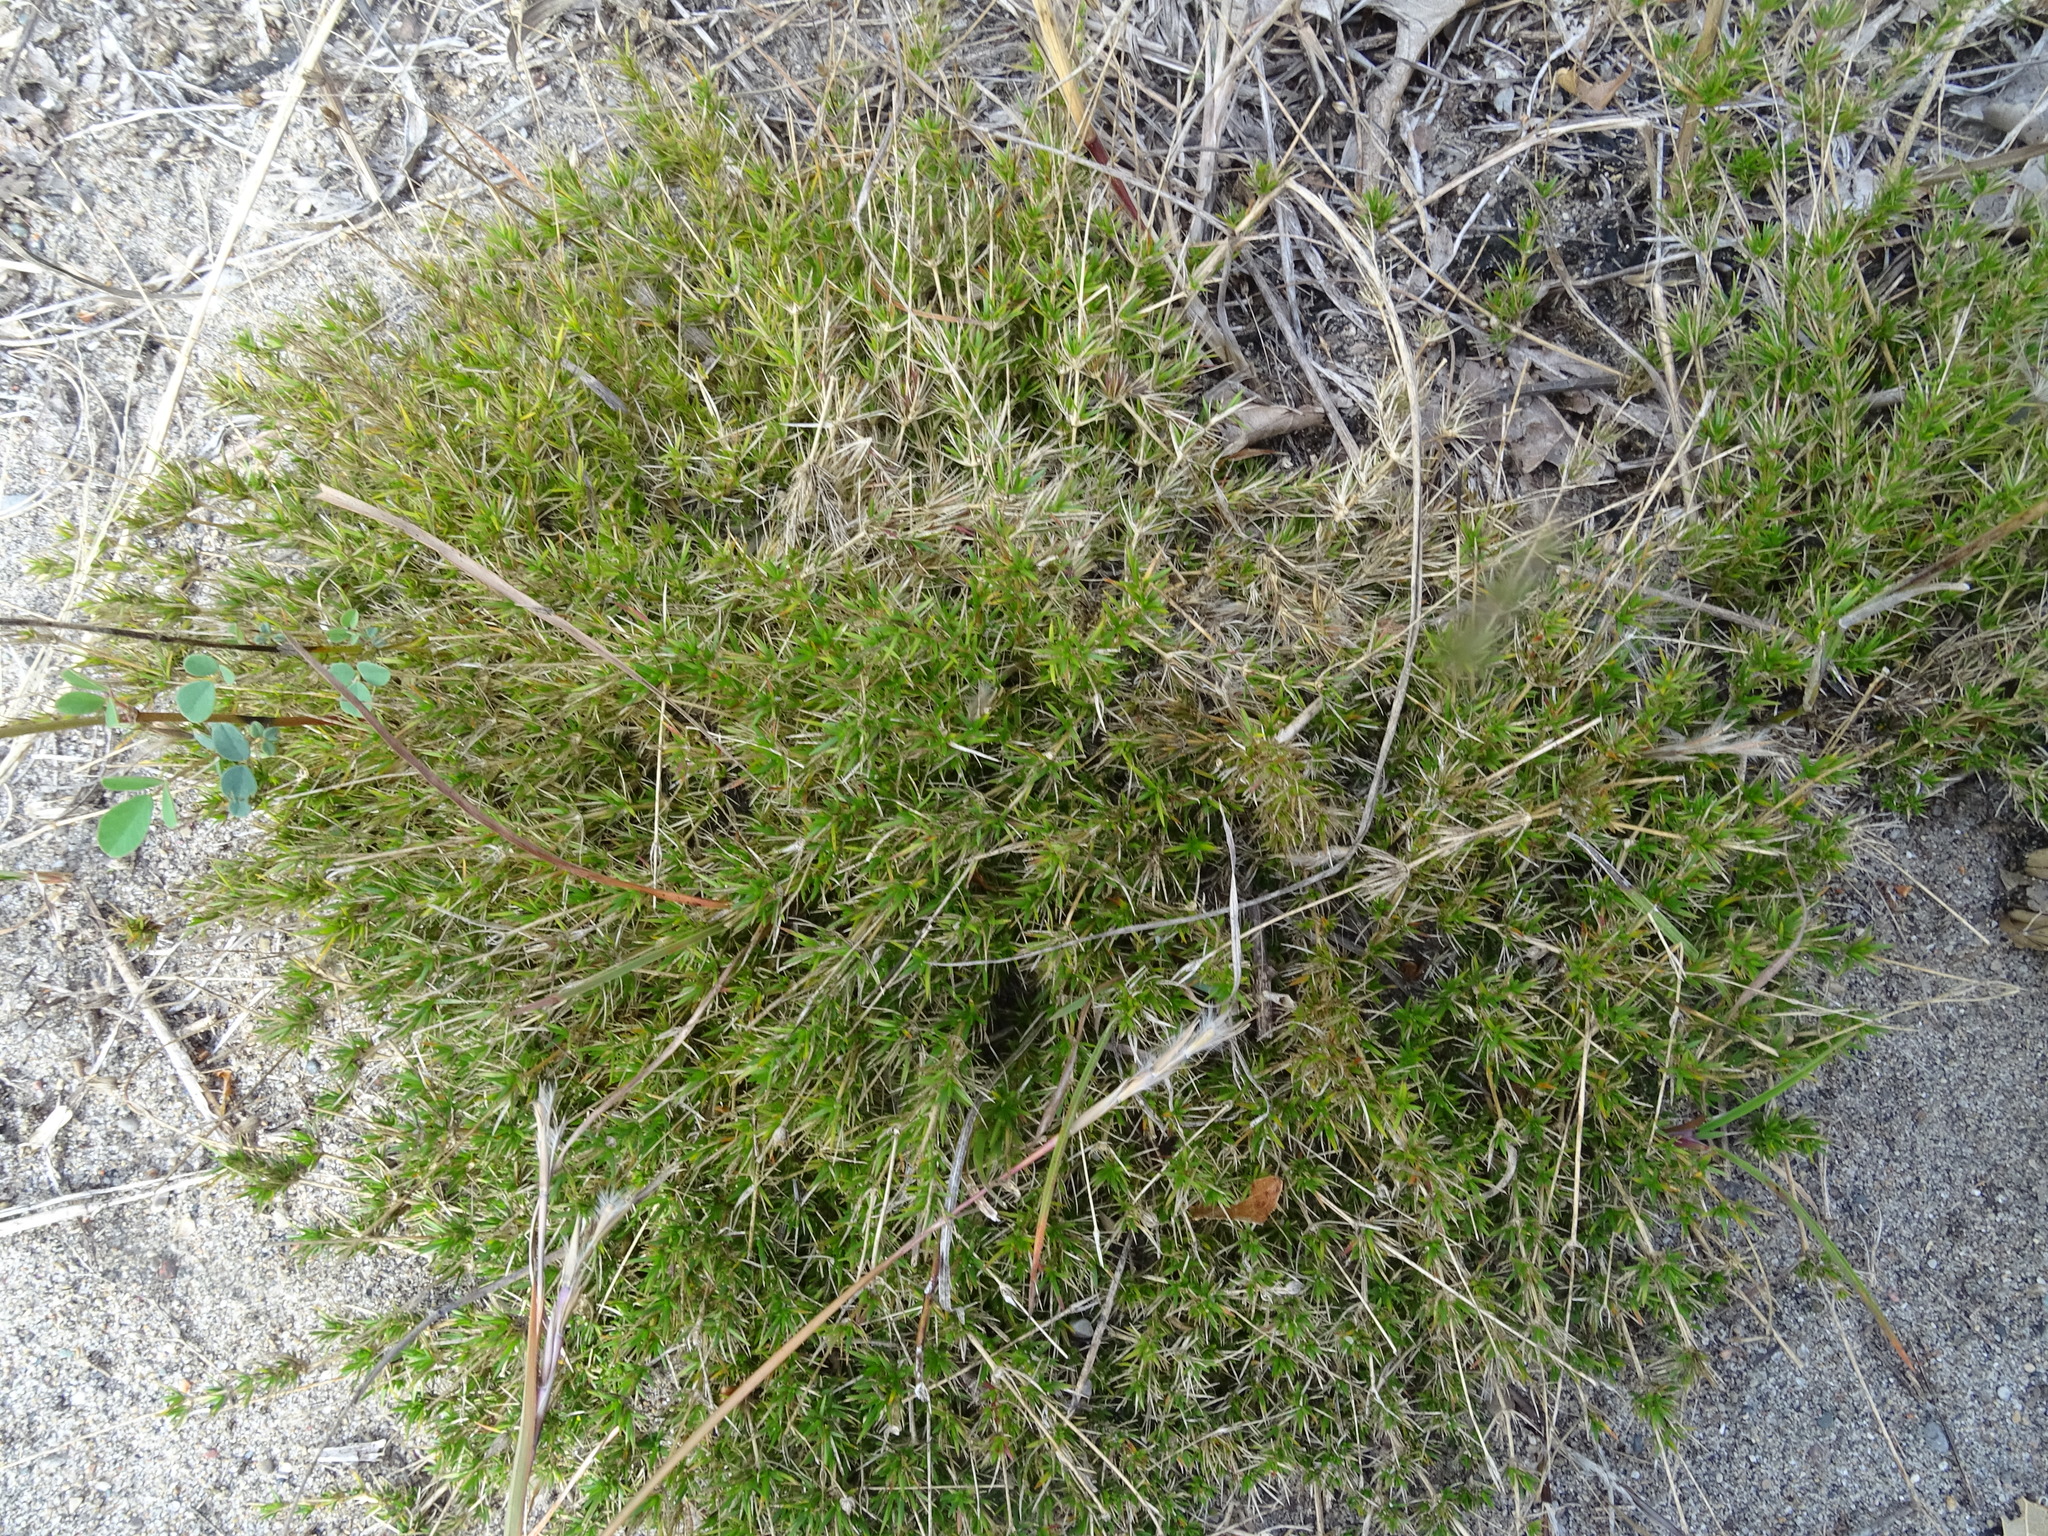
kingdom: Plantae
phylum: Tracheophyta
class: Magnoliopsida
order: Caryophyllales
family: Caryophyllaceae
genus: Sabulina
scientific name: Sabulina michauxii
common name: Michaux's stitchwort
